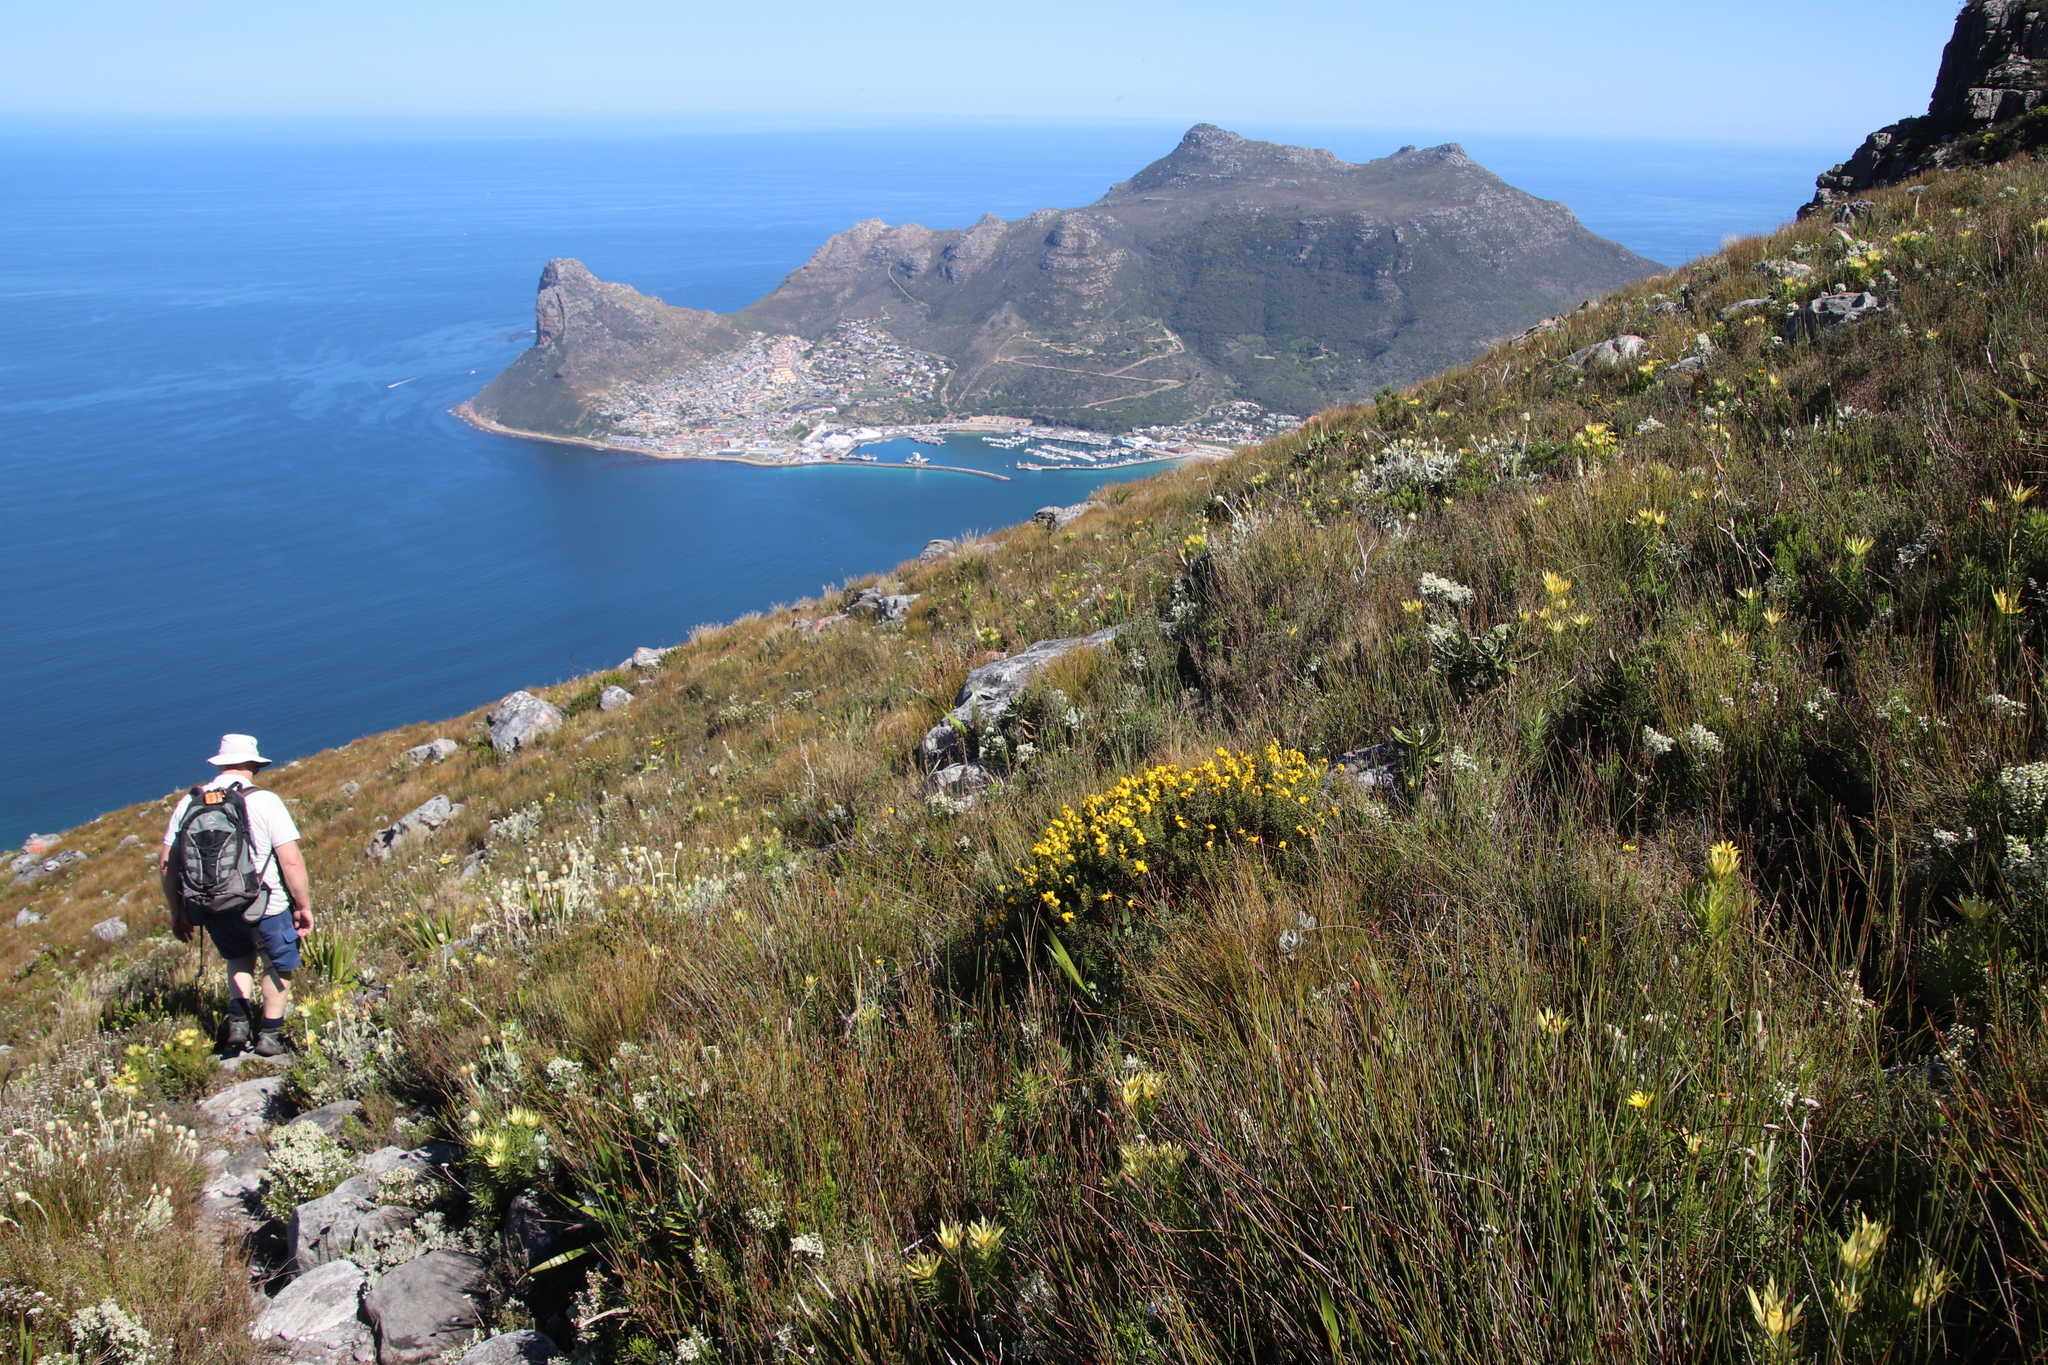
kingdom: Plantae
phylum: Tracheophyta
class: Magnoliopsida
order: Fabales
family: Fabaceae
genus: Cyclopia
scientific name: Cyclopia genistoides
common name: Honeybush tea
